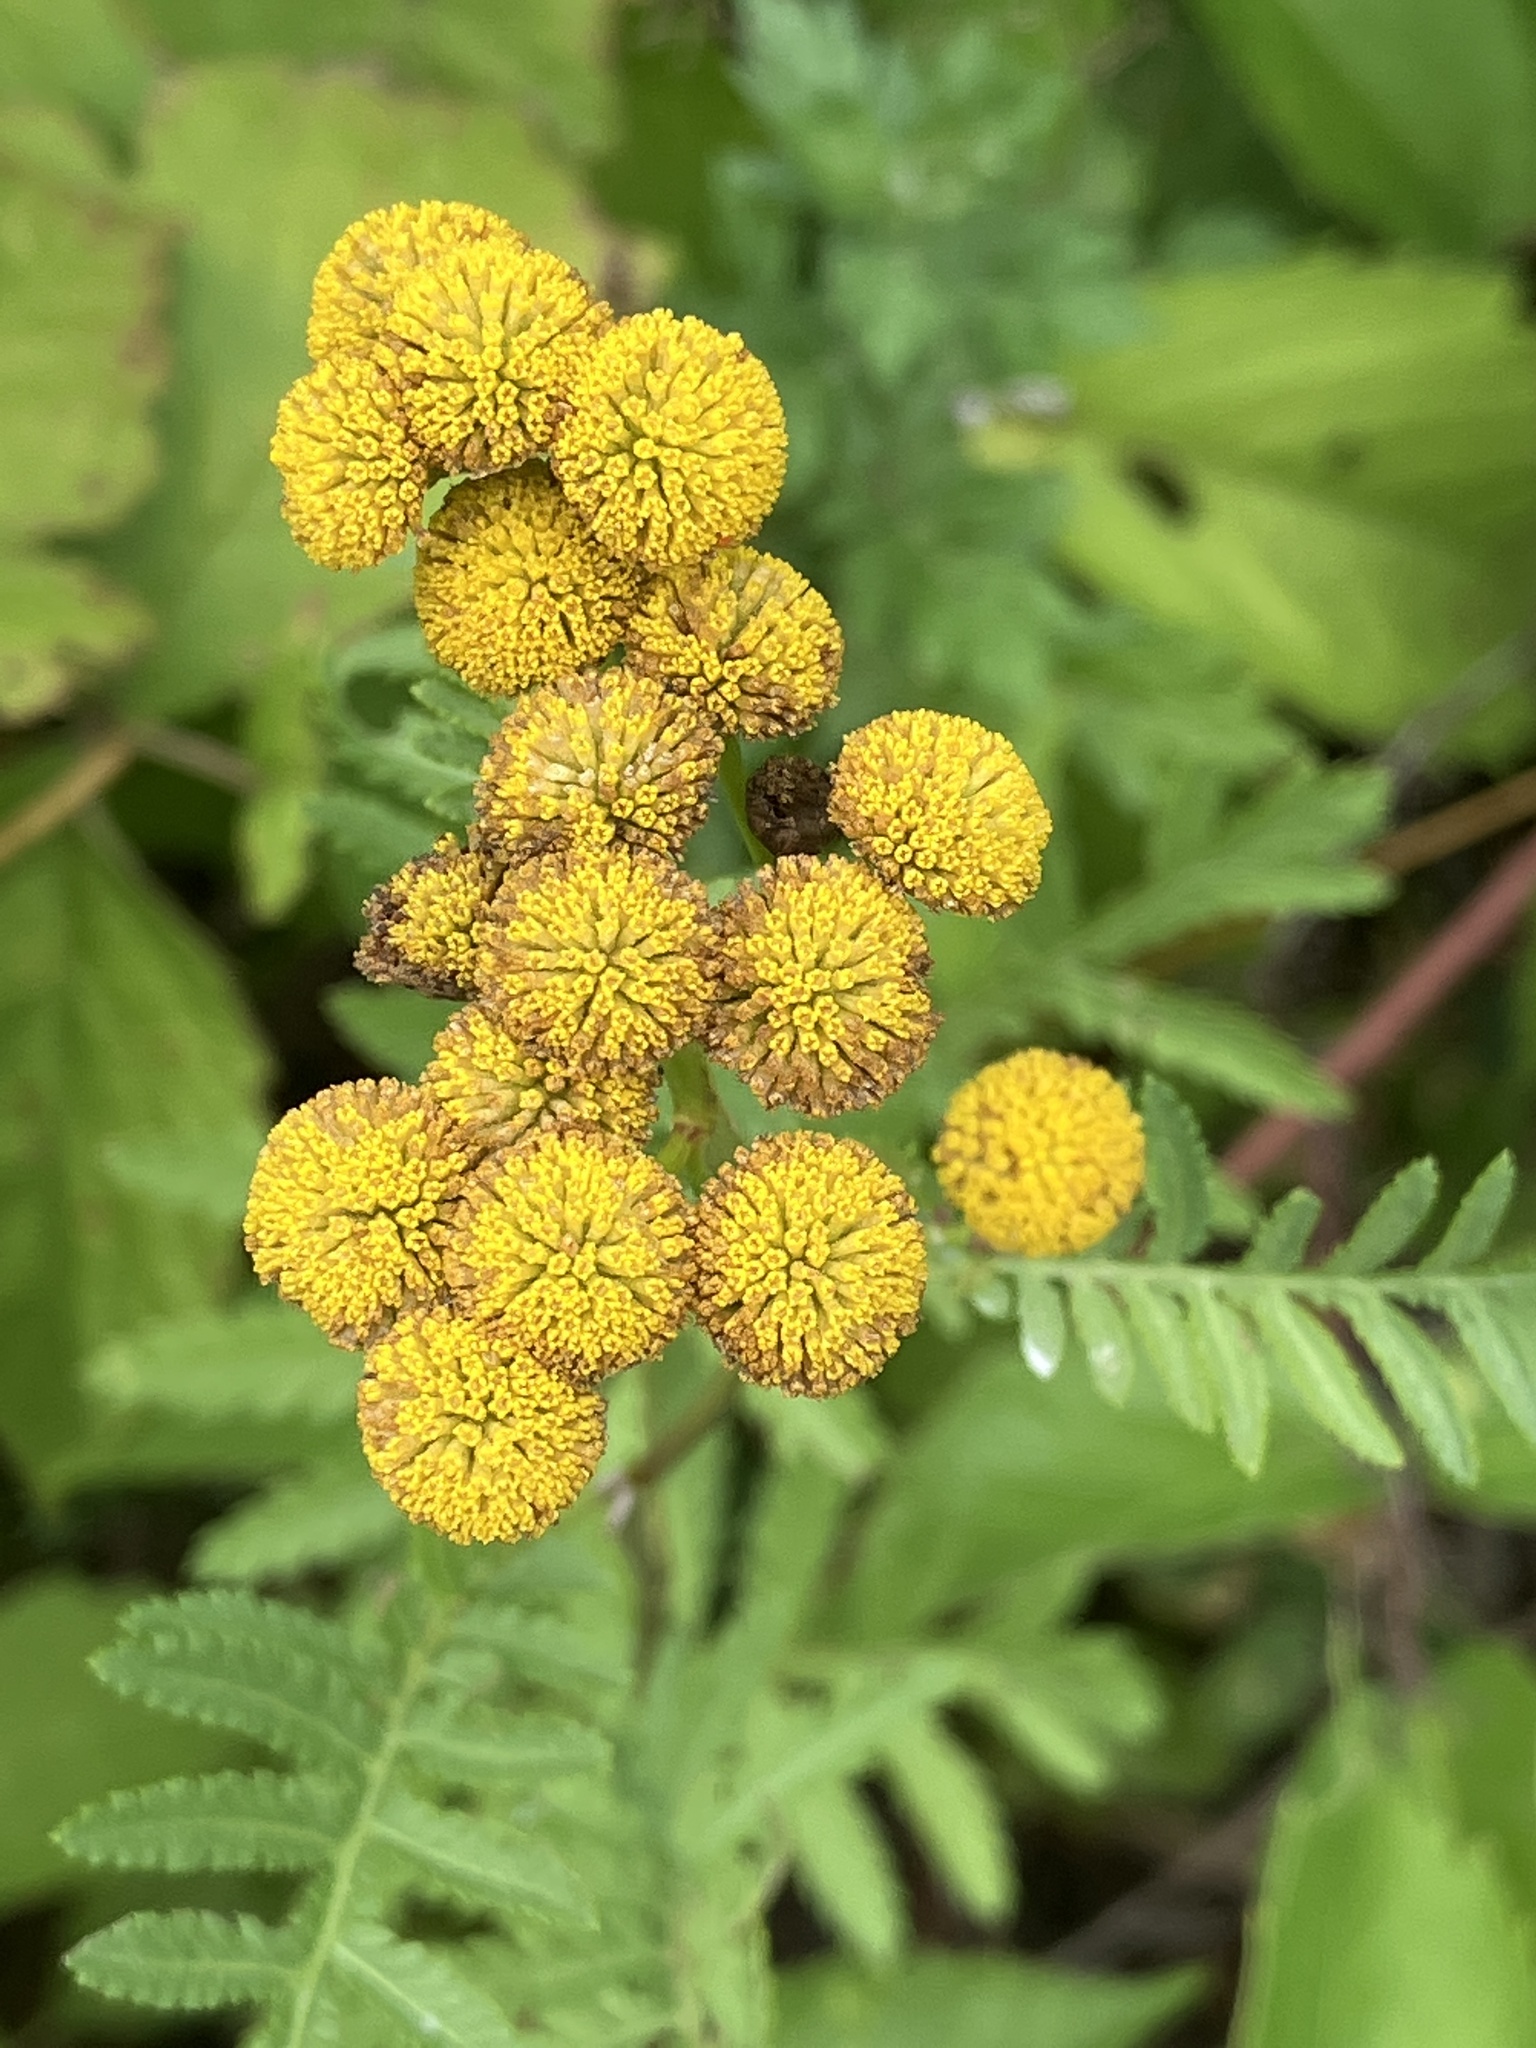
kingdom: Plantae
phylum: Tracheophyta
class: Magnoliopsida
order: Asterales
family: Asteraceae
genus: Tanacetum
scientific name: Tanacetum vulgare
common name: Common tansy
